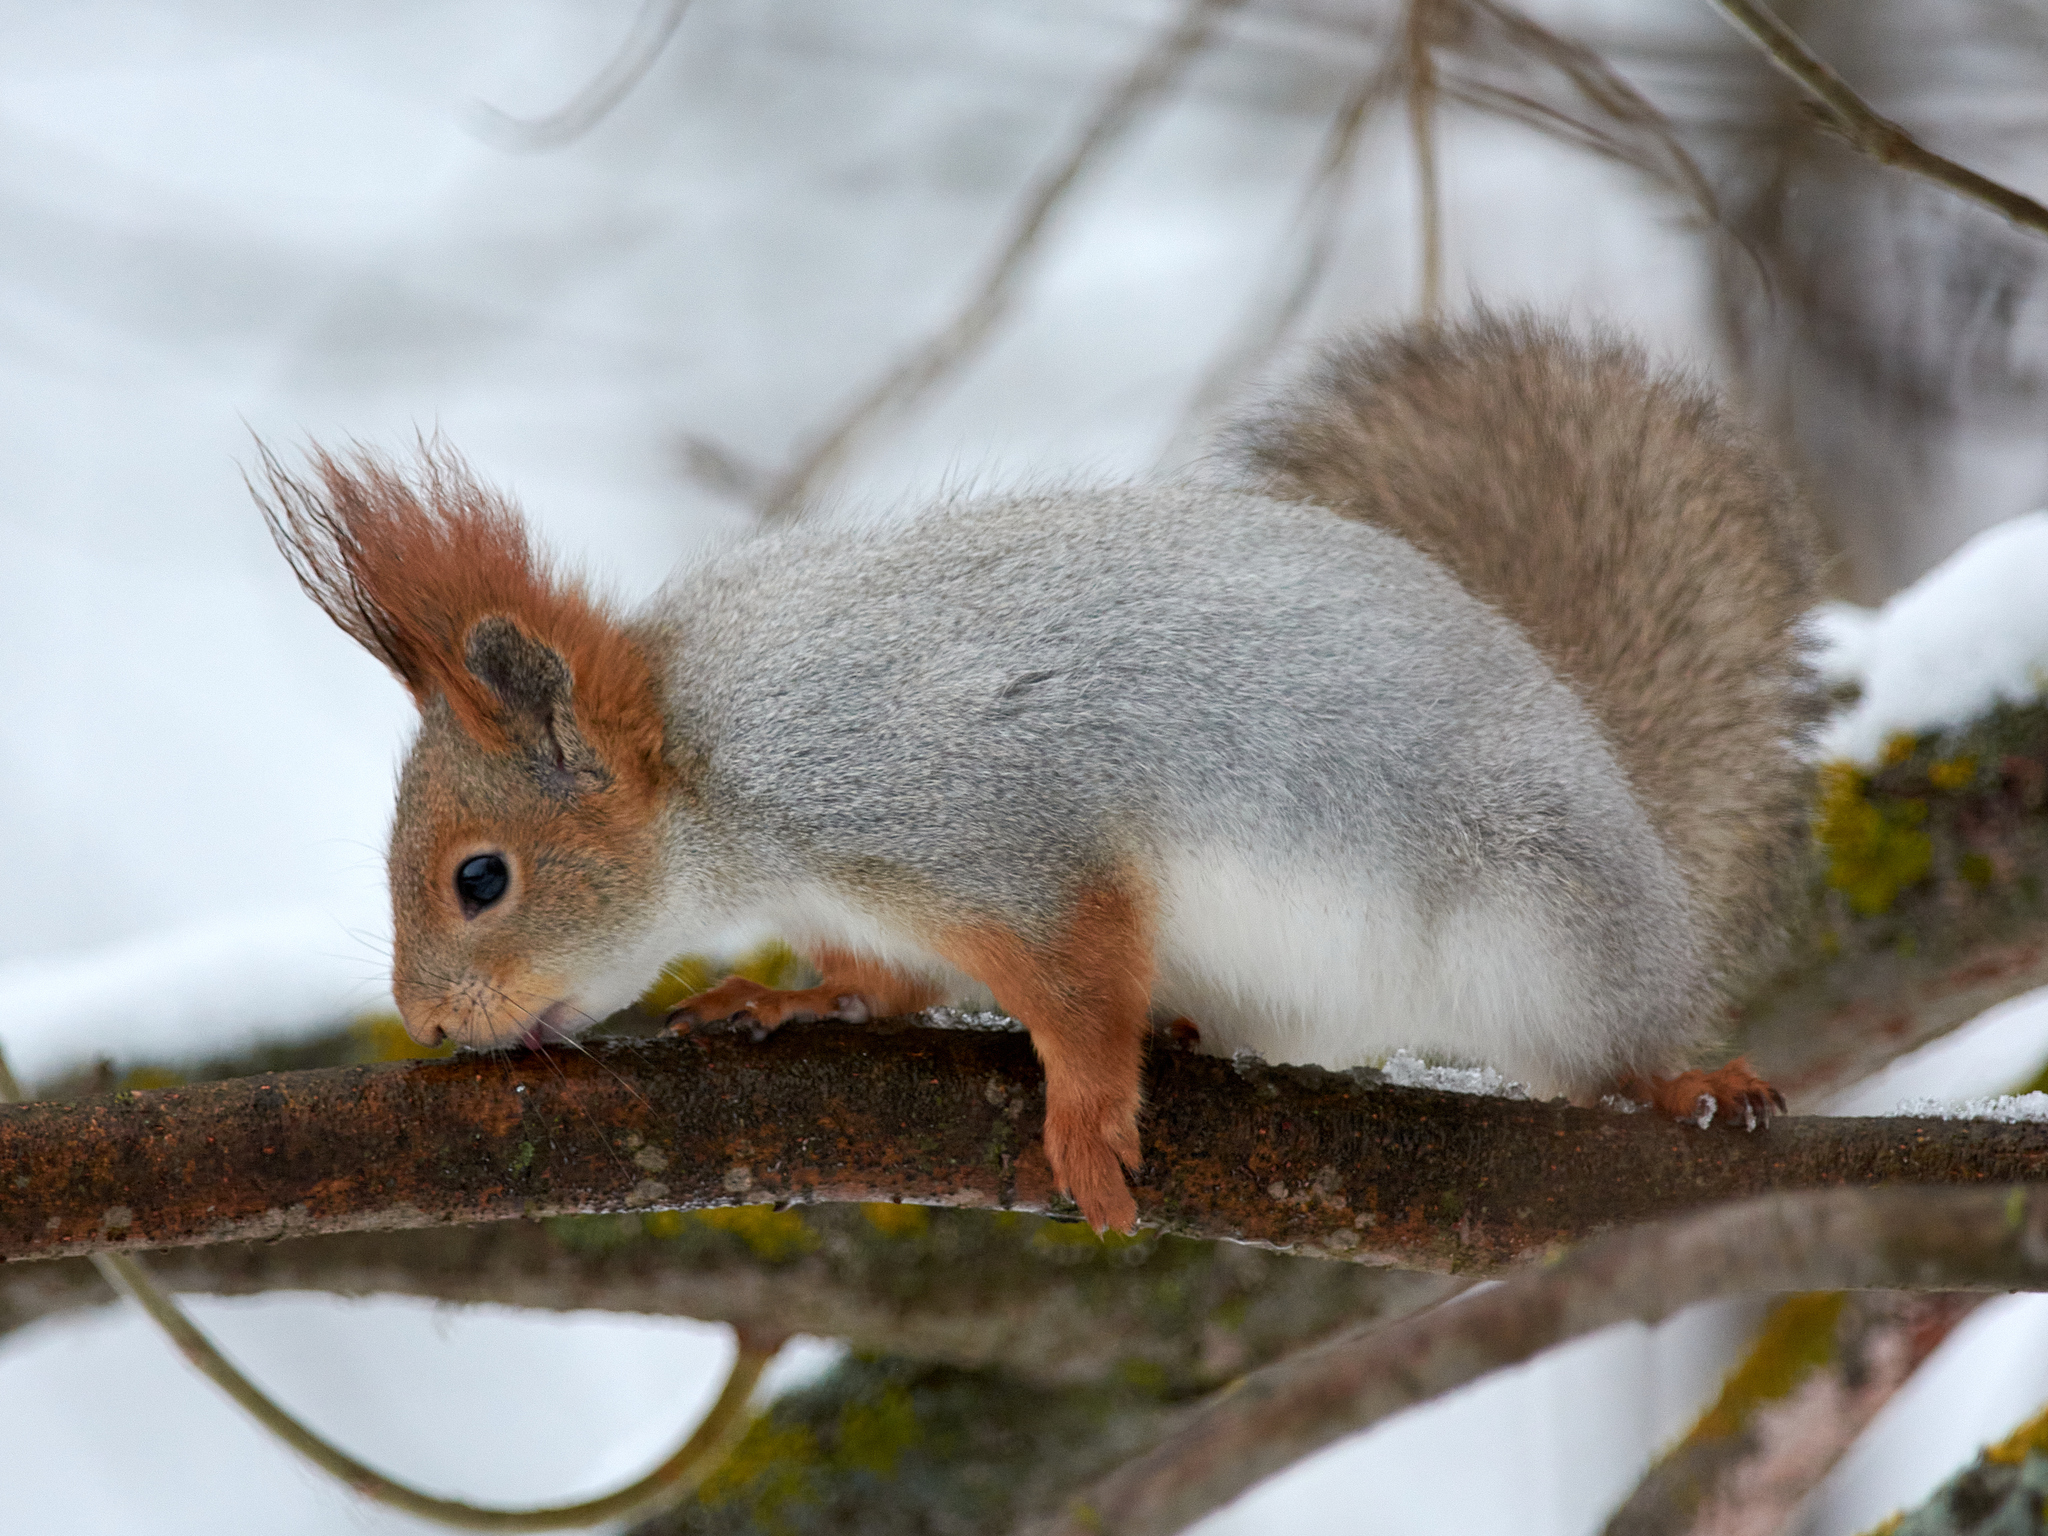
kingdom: Animalia
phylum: Chordata
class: Mammalia
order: Rodentia
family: Sciuridae
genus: Sciurus
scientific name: Sciurus vulgaris
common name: Eurasian red squirrel
